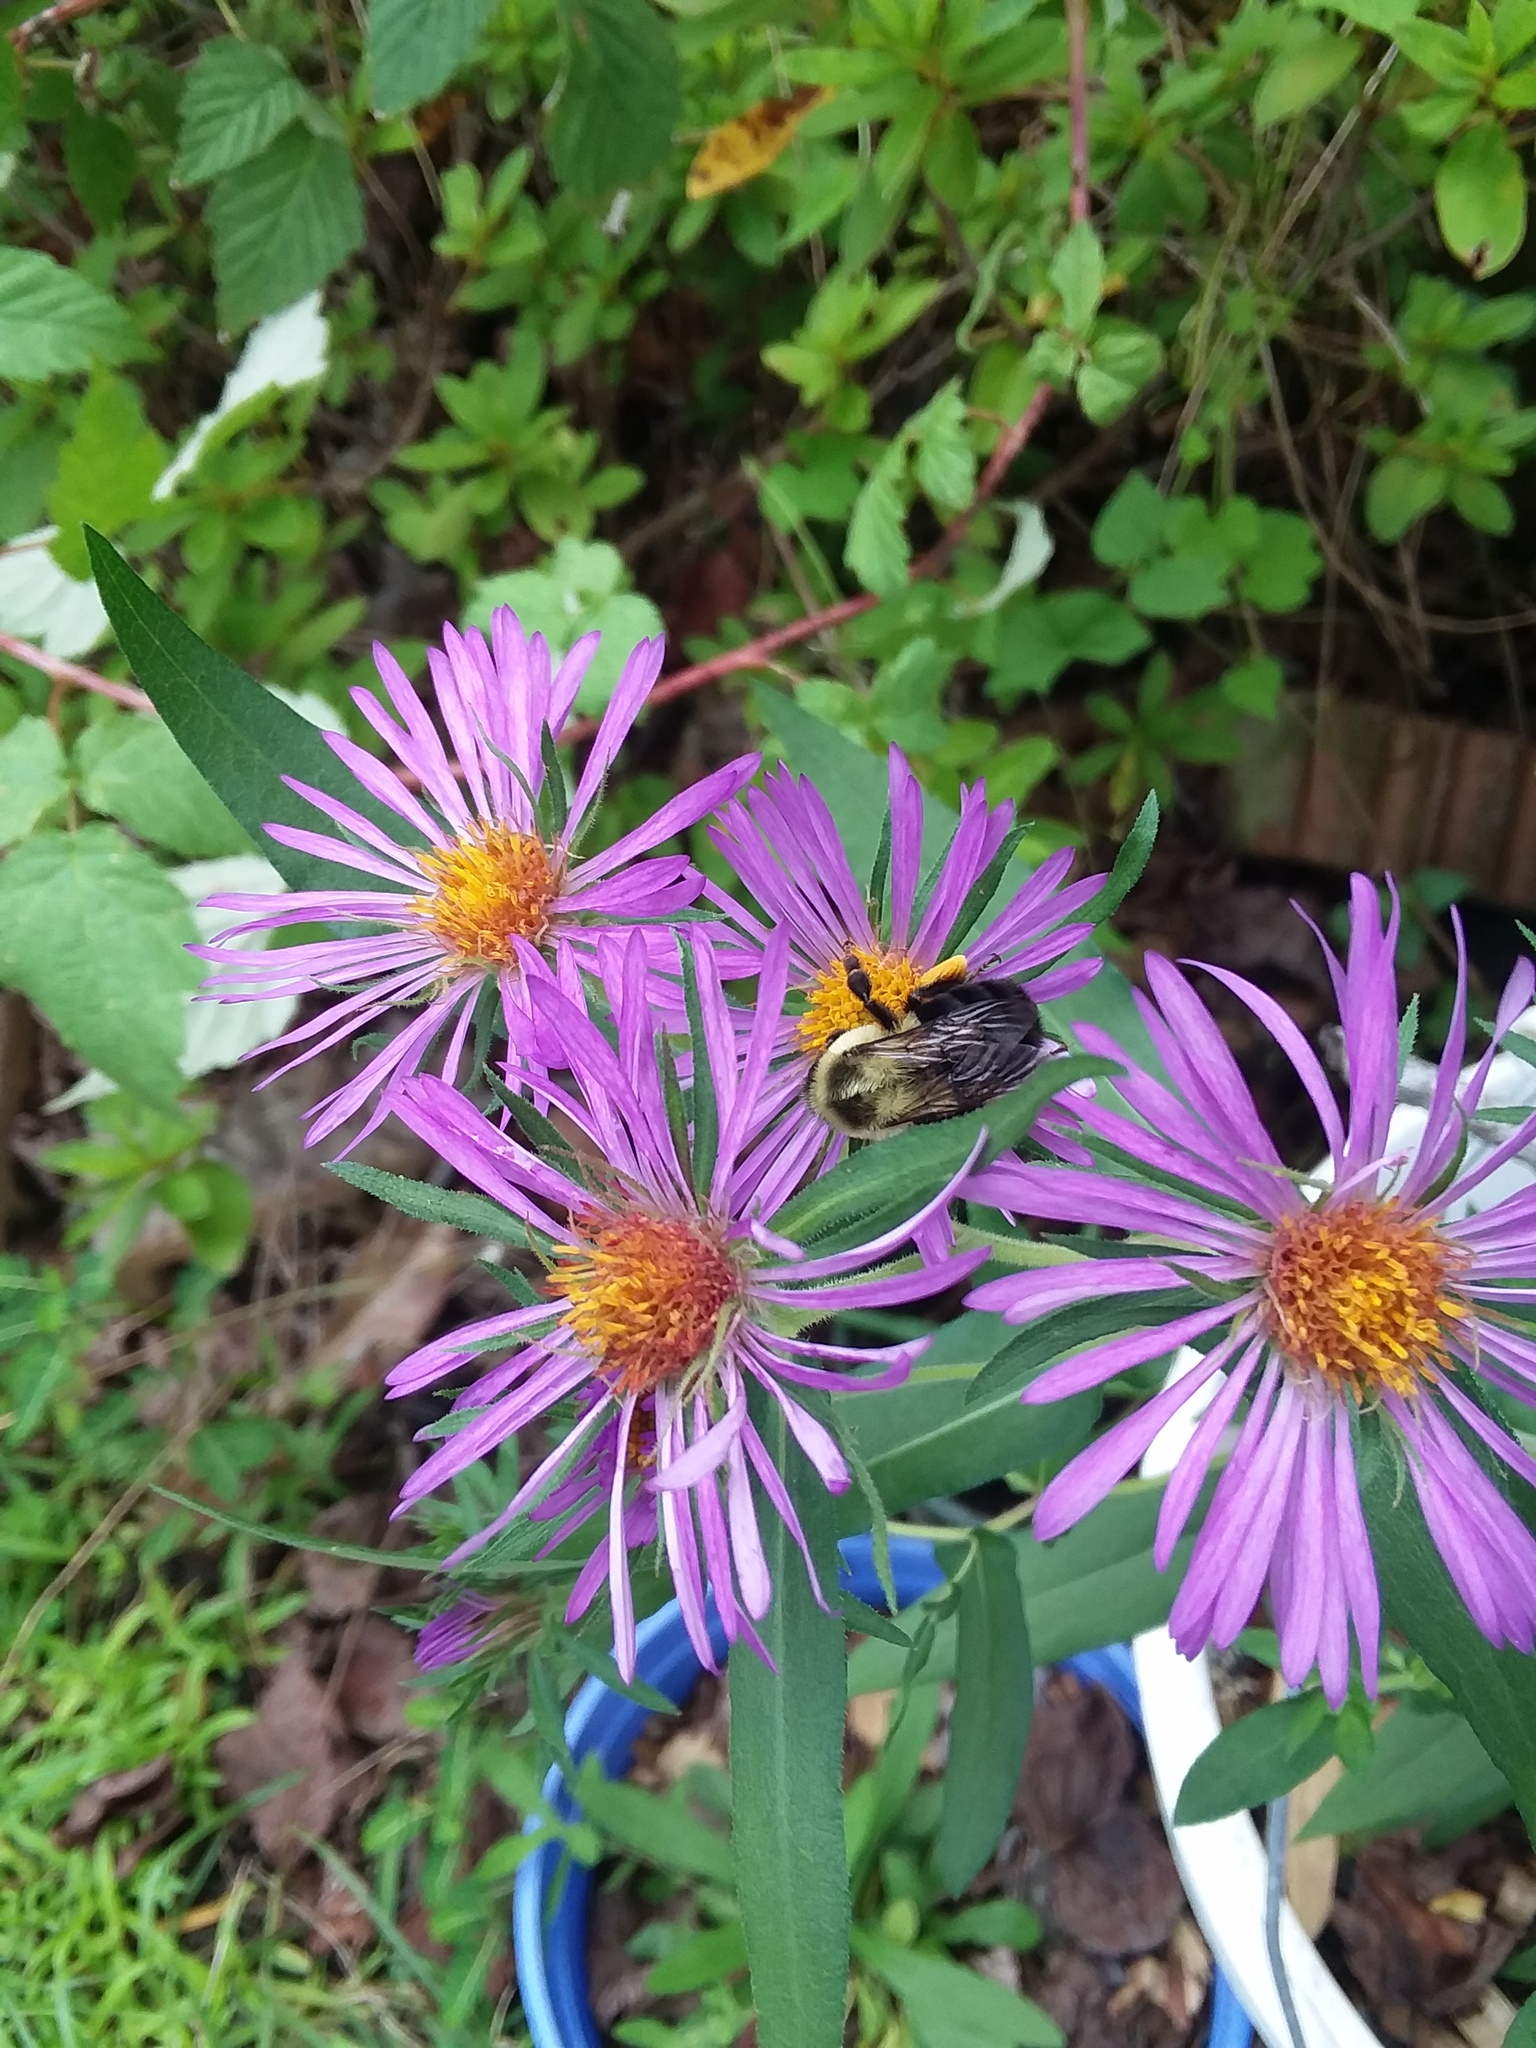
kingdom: Animalia
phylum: Arthropoda
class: Insecta
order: Hymenoptera
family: Apidae
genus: Bombus
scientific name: Bombus impatiens
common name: Common eastern bumble bee
